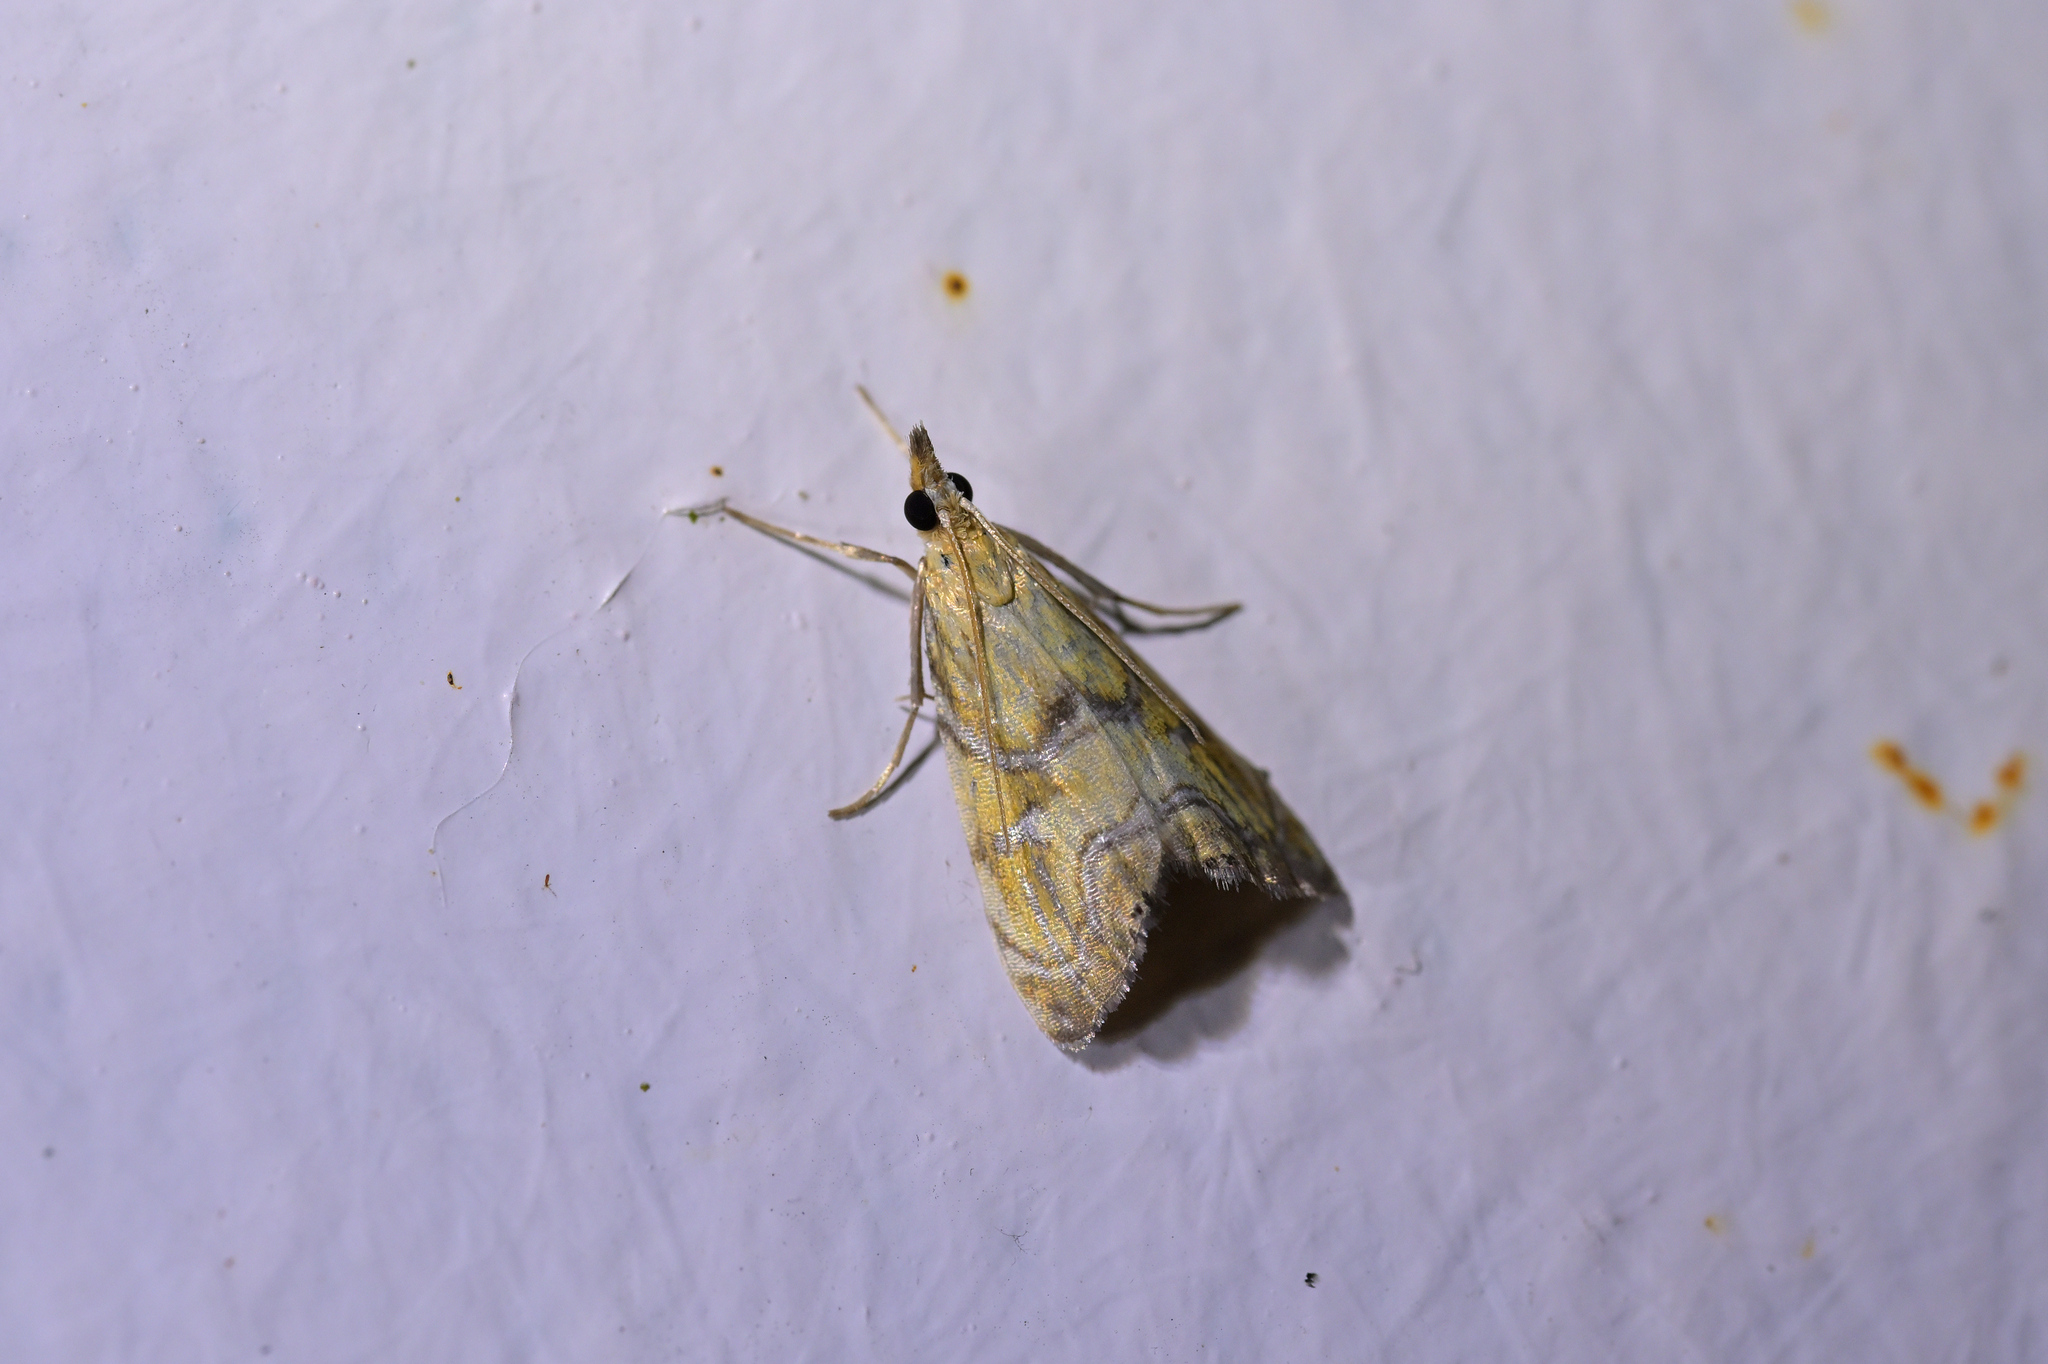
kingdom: Animalia
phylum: Arthropoda
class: Insecta
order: Lepidoptera
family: Crambidae
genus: Glaucocharis
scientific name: Glaucocharis auriscriptella
